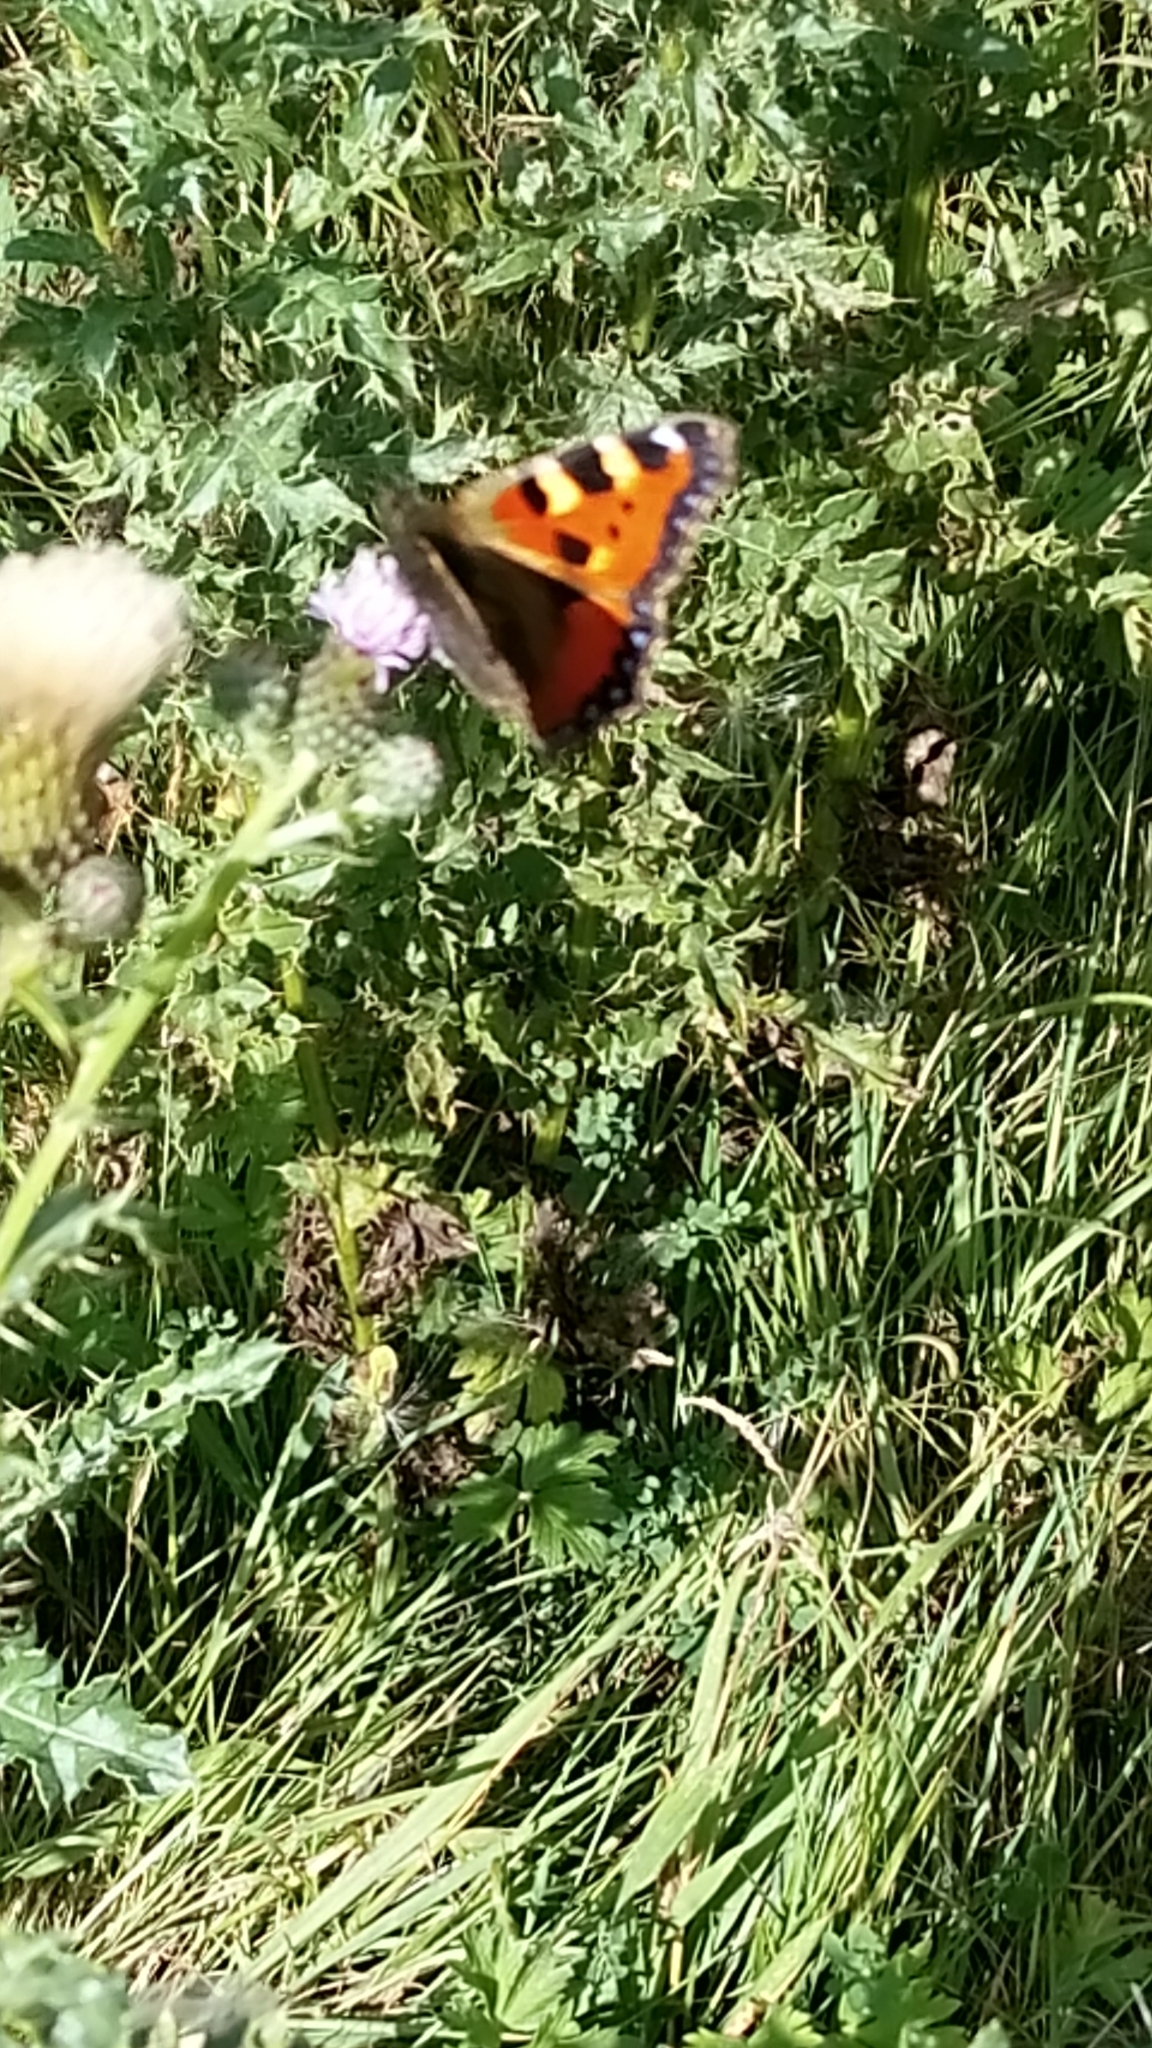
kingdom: Animalia
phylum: Arthropoda
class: Insecta
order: Lepidoptera
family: Nymphalidae
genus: Aglais
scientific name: Aglais urticae
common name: Small tortoiseshell
